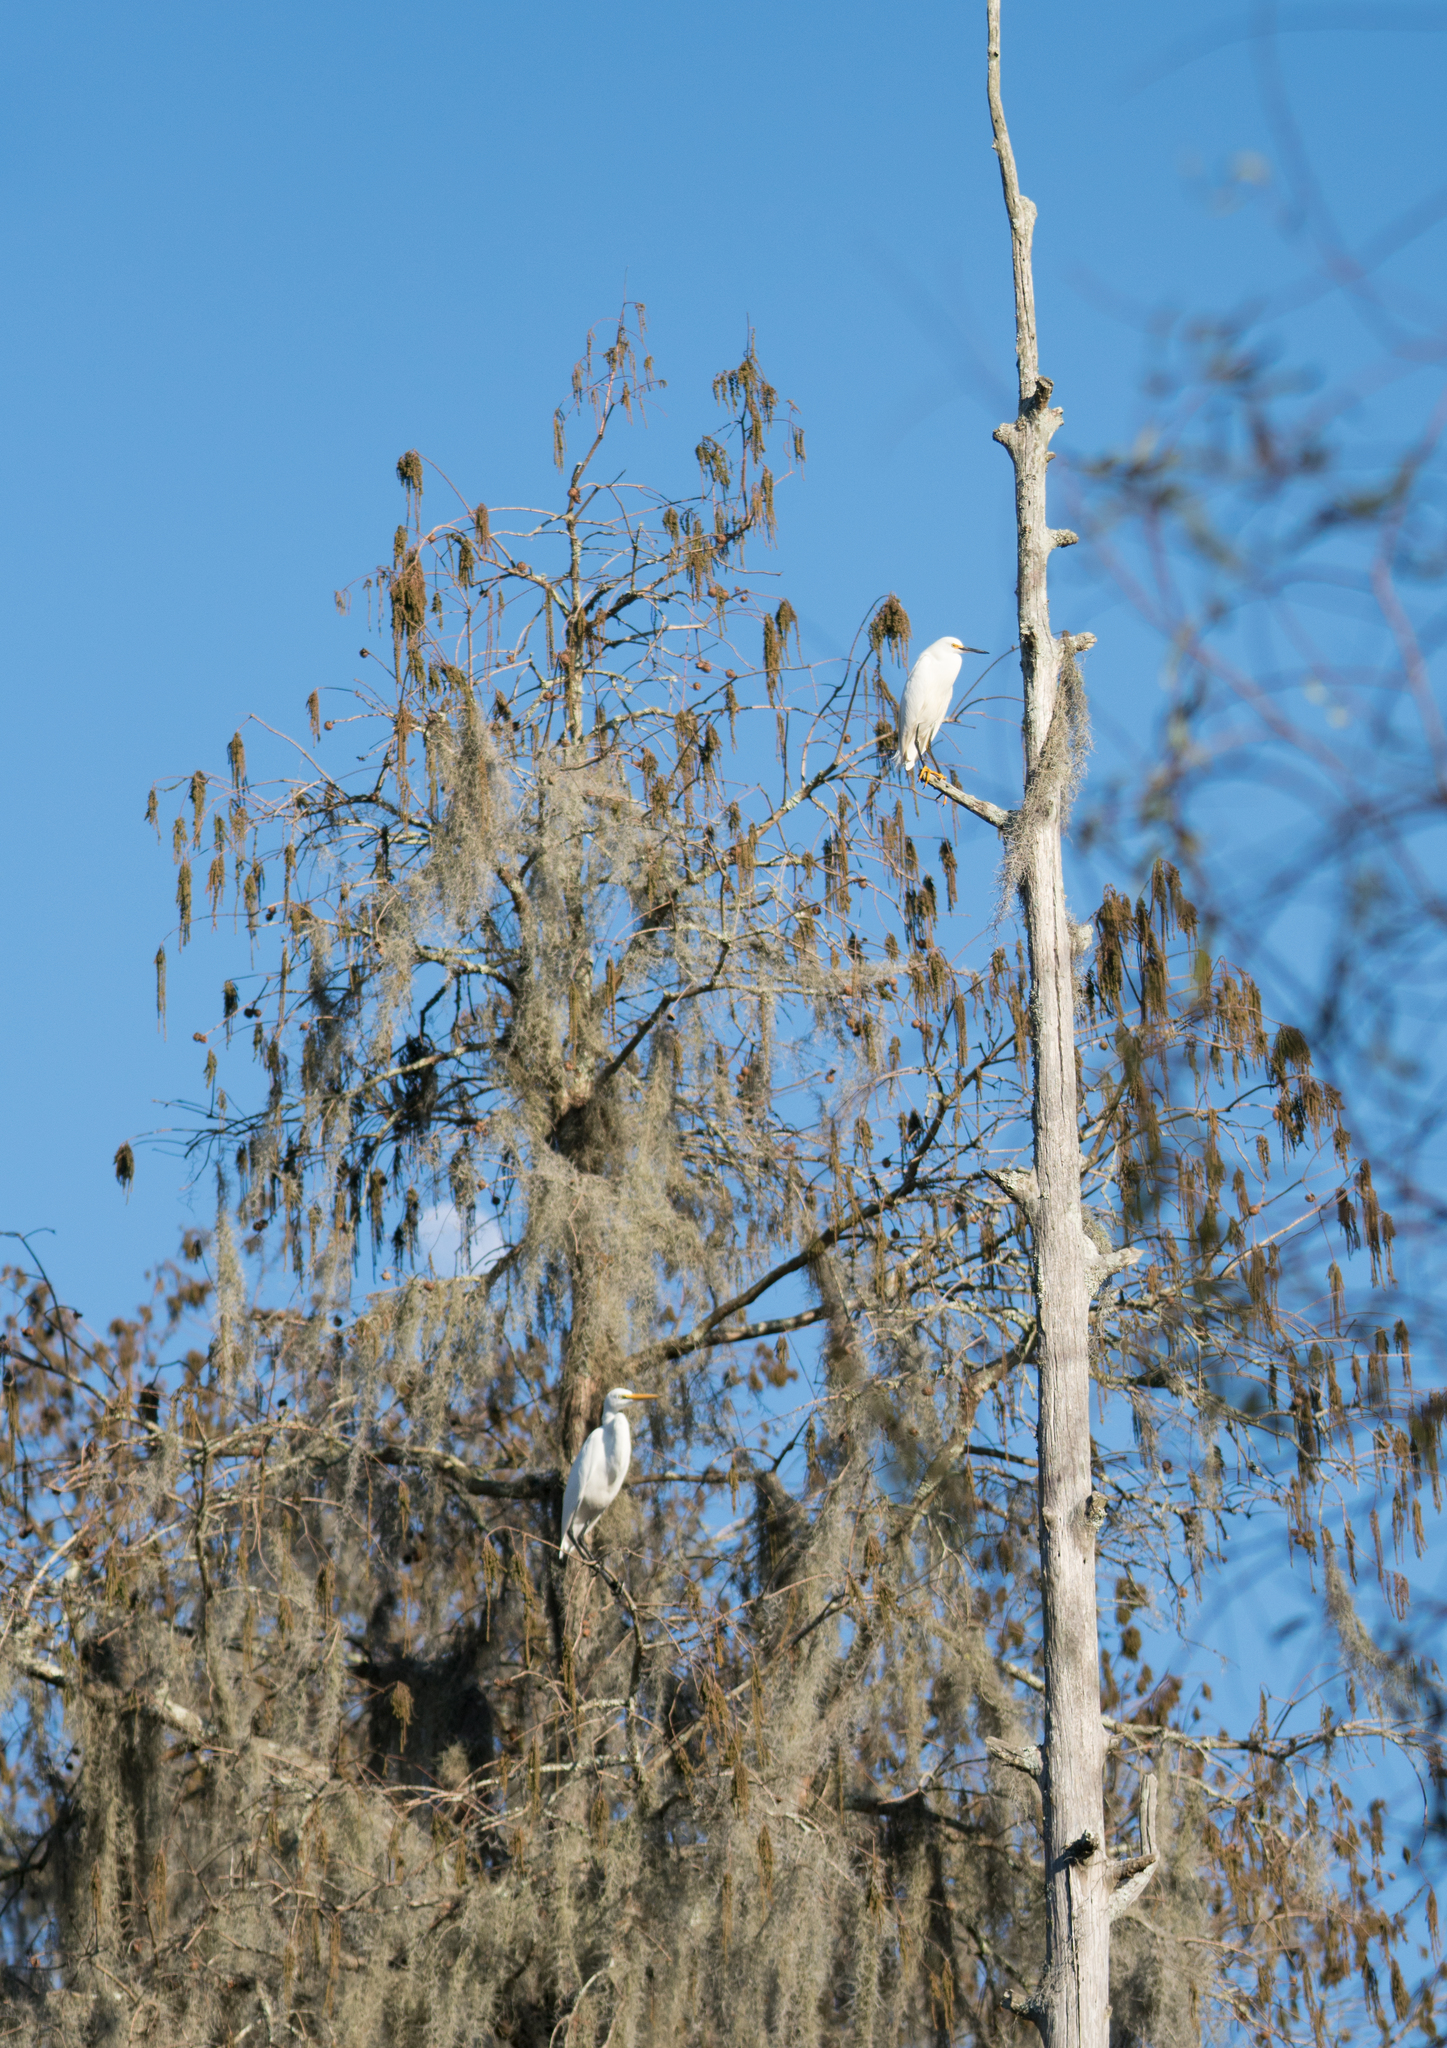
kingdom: Animalia
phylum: Chordata
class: Aves
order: Pelecaniformes
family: Ardeidae
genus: Egretta
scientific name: Egretta thula
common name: Snowy egret
